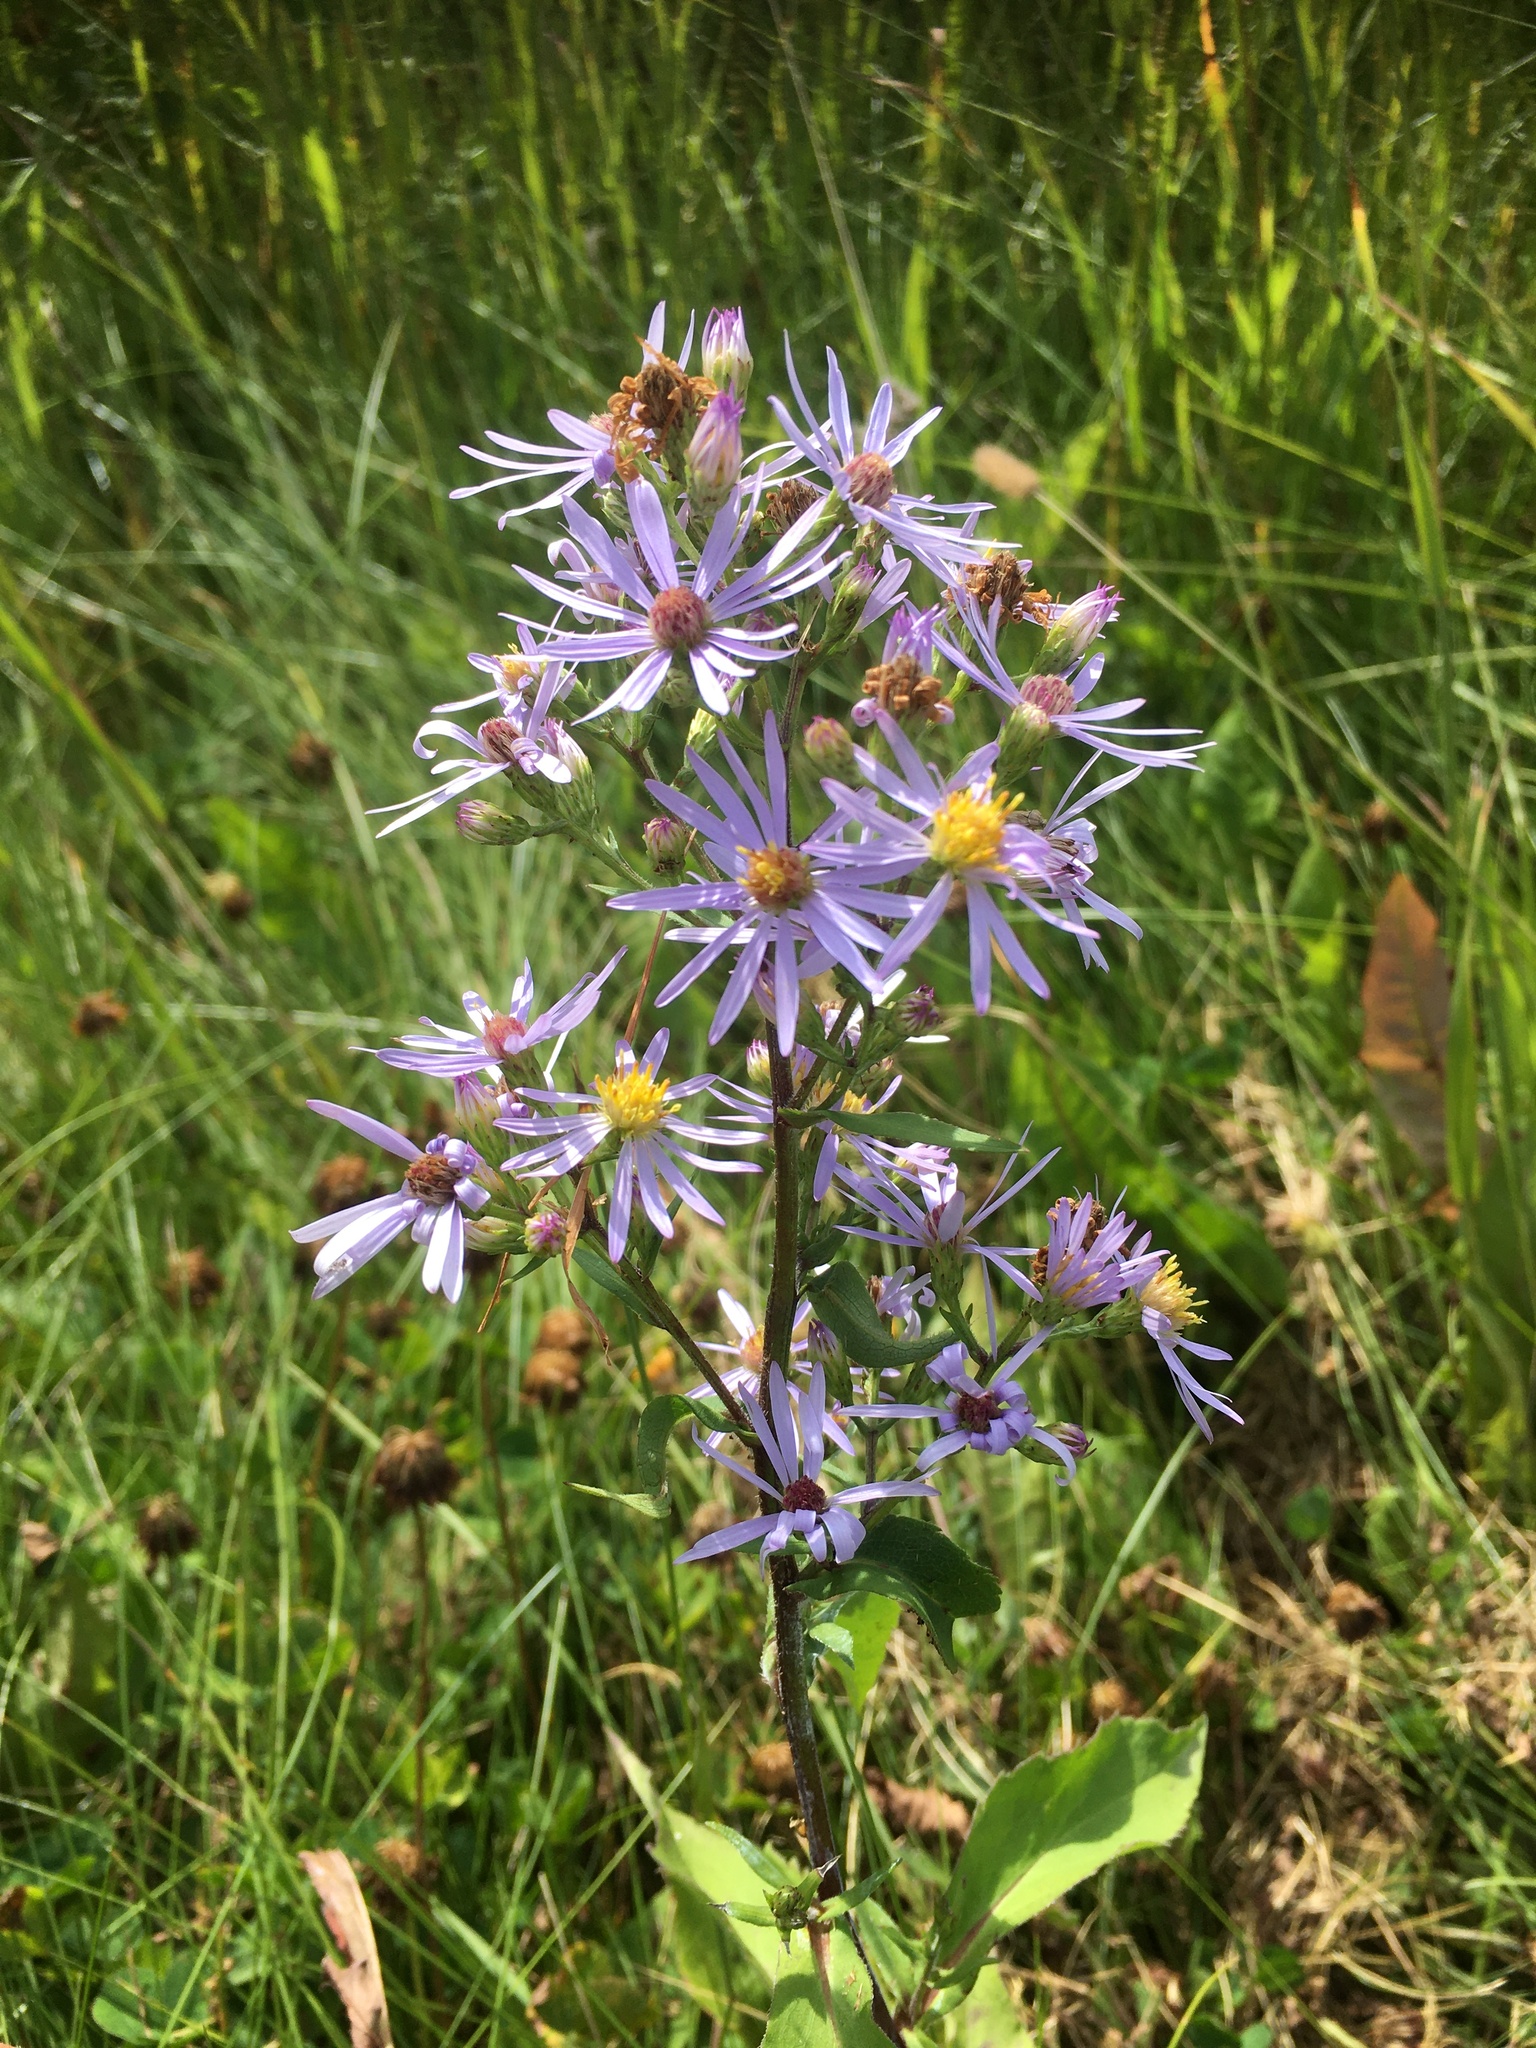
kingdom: Plantae
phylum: Tracheophyta
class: Magnoliopsida
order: Asterales
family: Asteraceae
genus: Symphyotrichum
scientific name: Symphyotrichum ciliolatum
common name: Fringed blue aster
